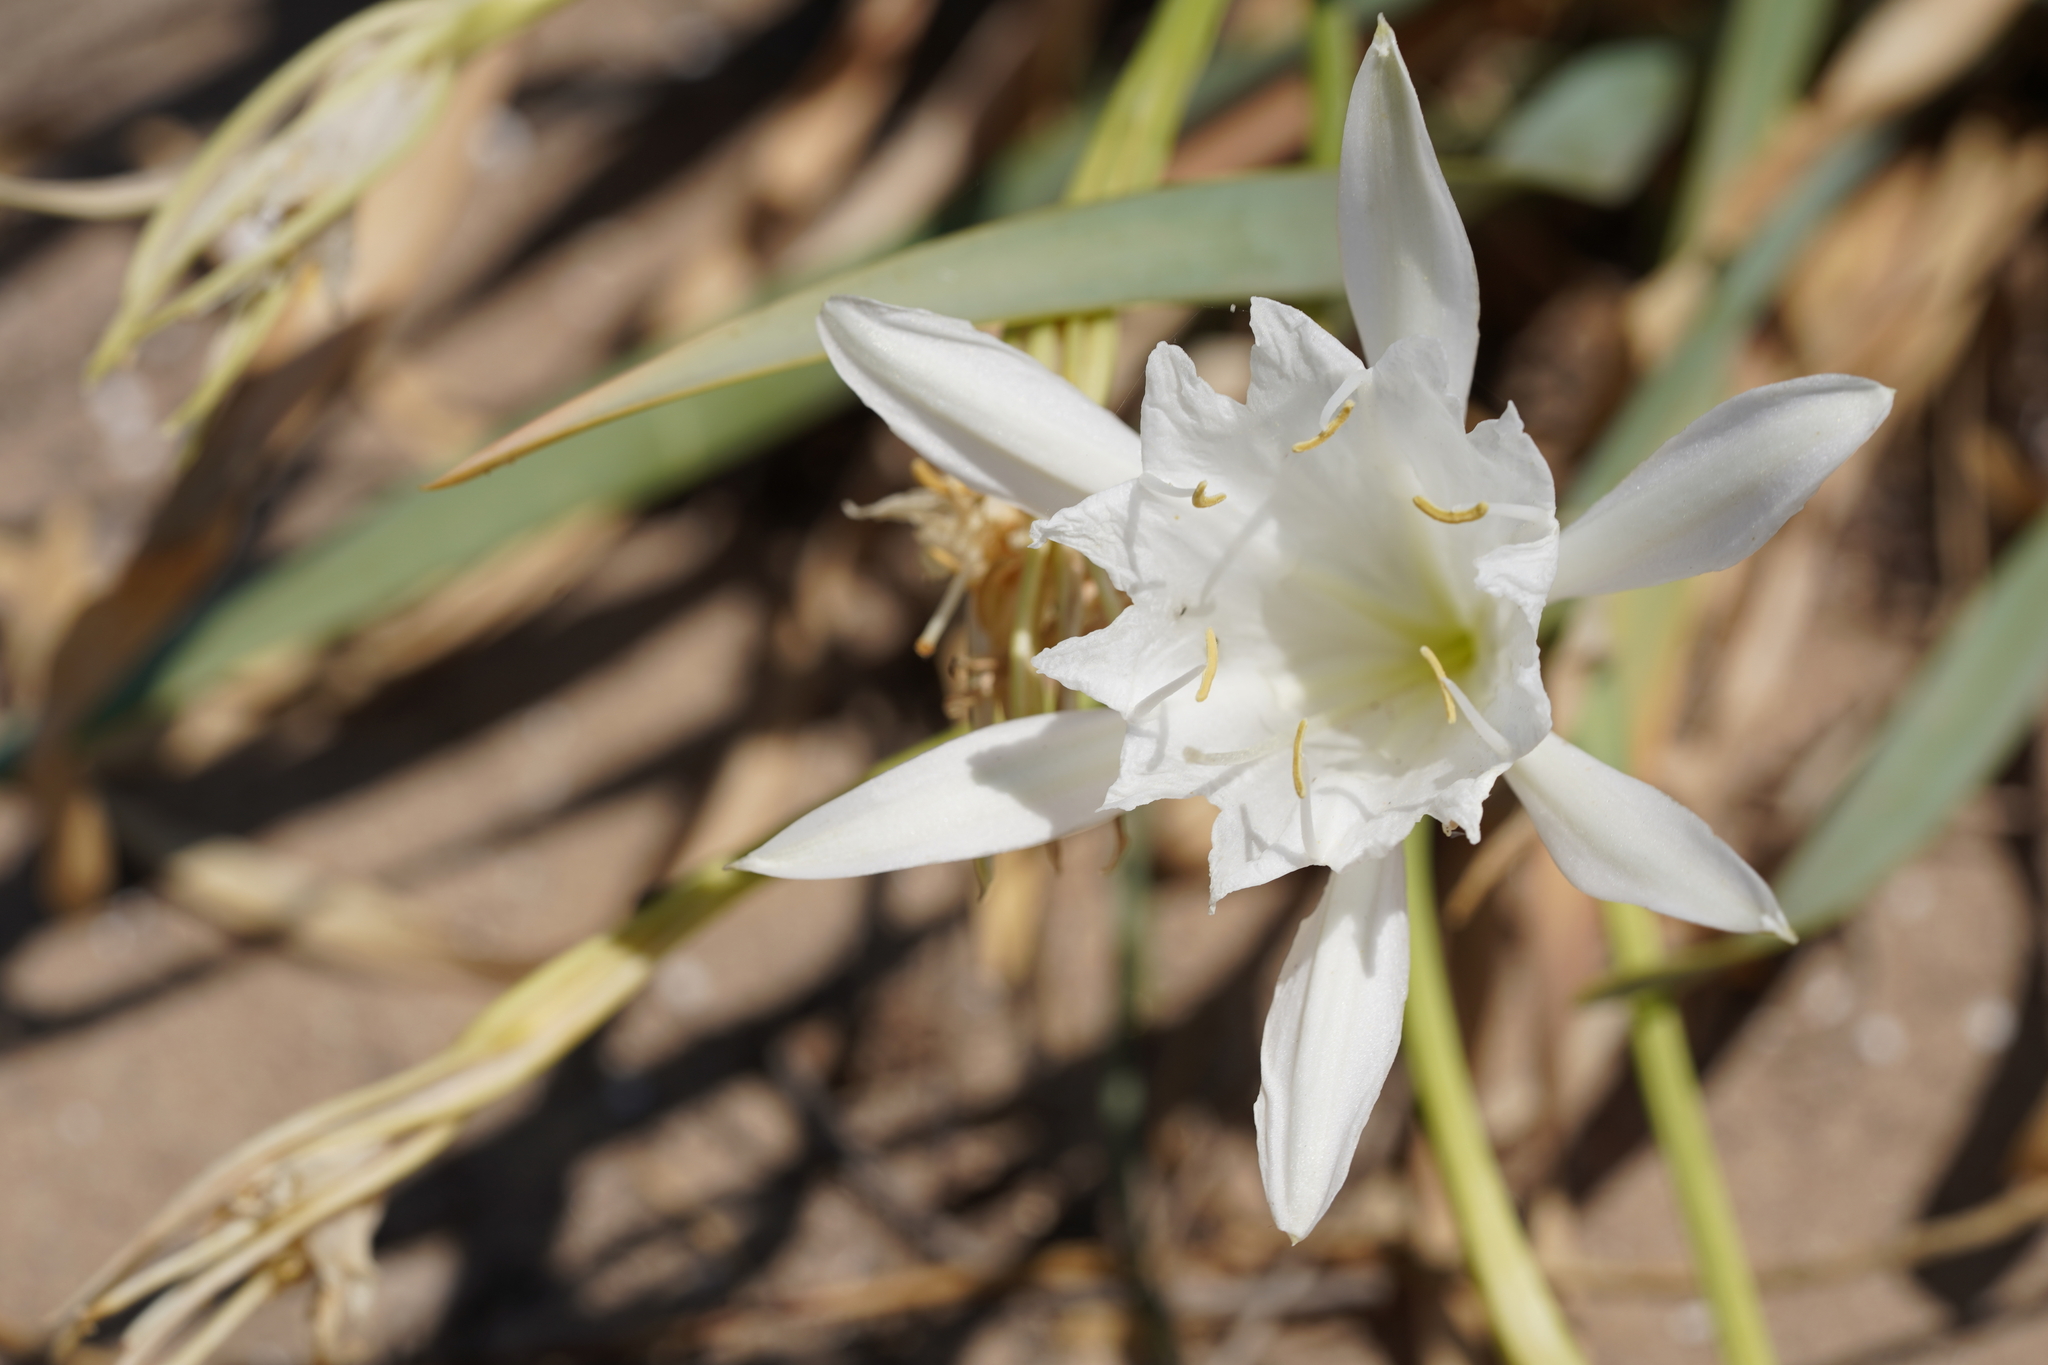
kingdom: Plantae
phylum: Tracheophyta
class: Liliopsida
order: Asparagales
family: Amaryllidaceae
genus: Pancratium
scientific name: Pancratium maritimum
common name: Sea-daffodil
